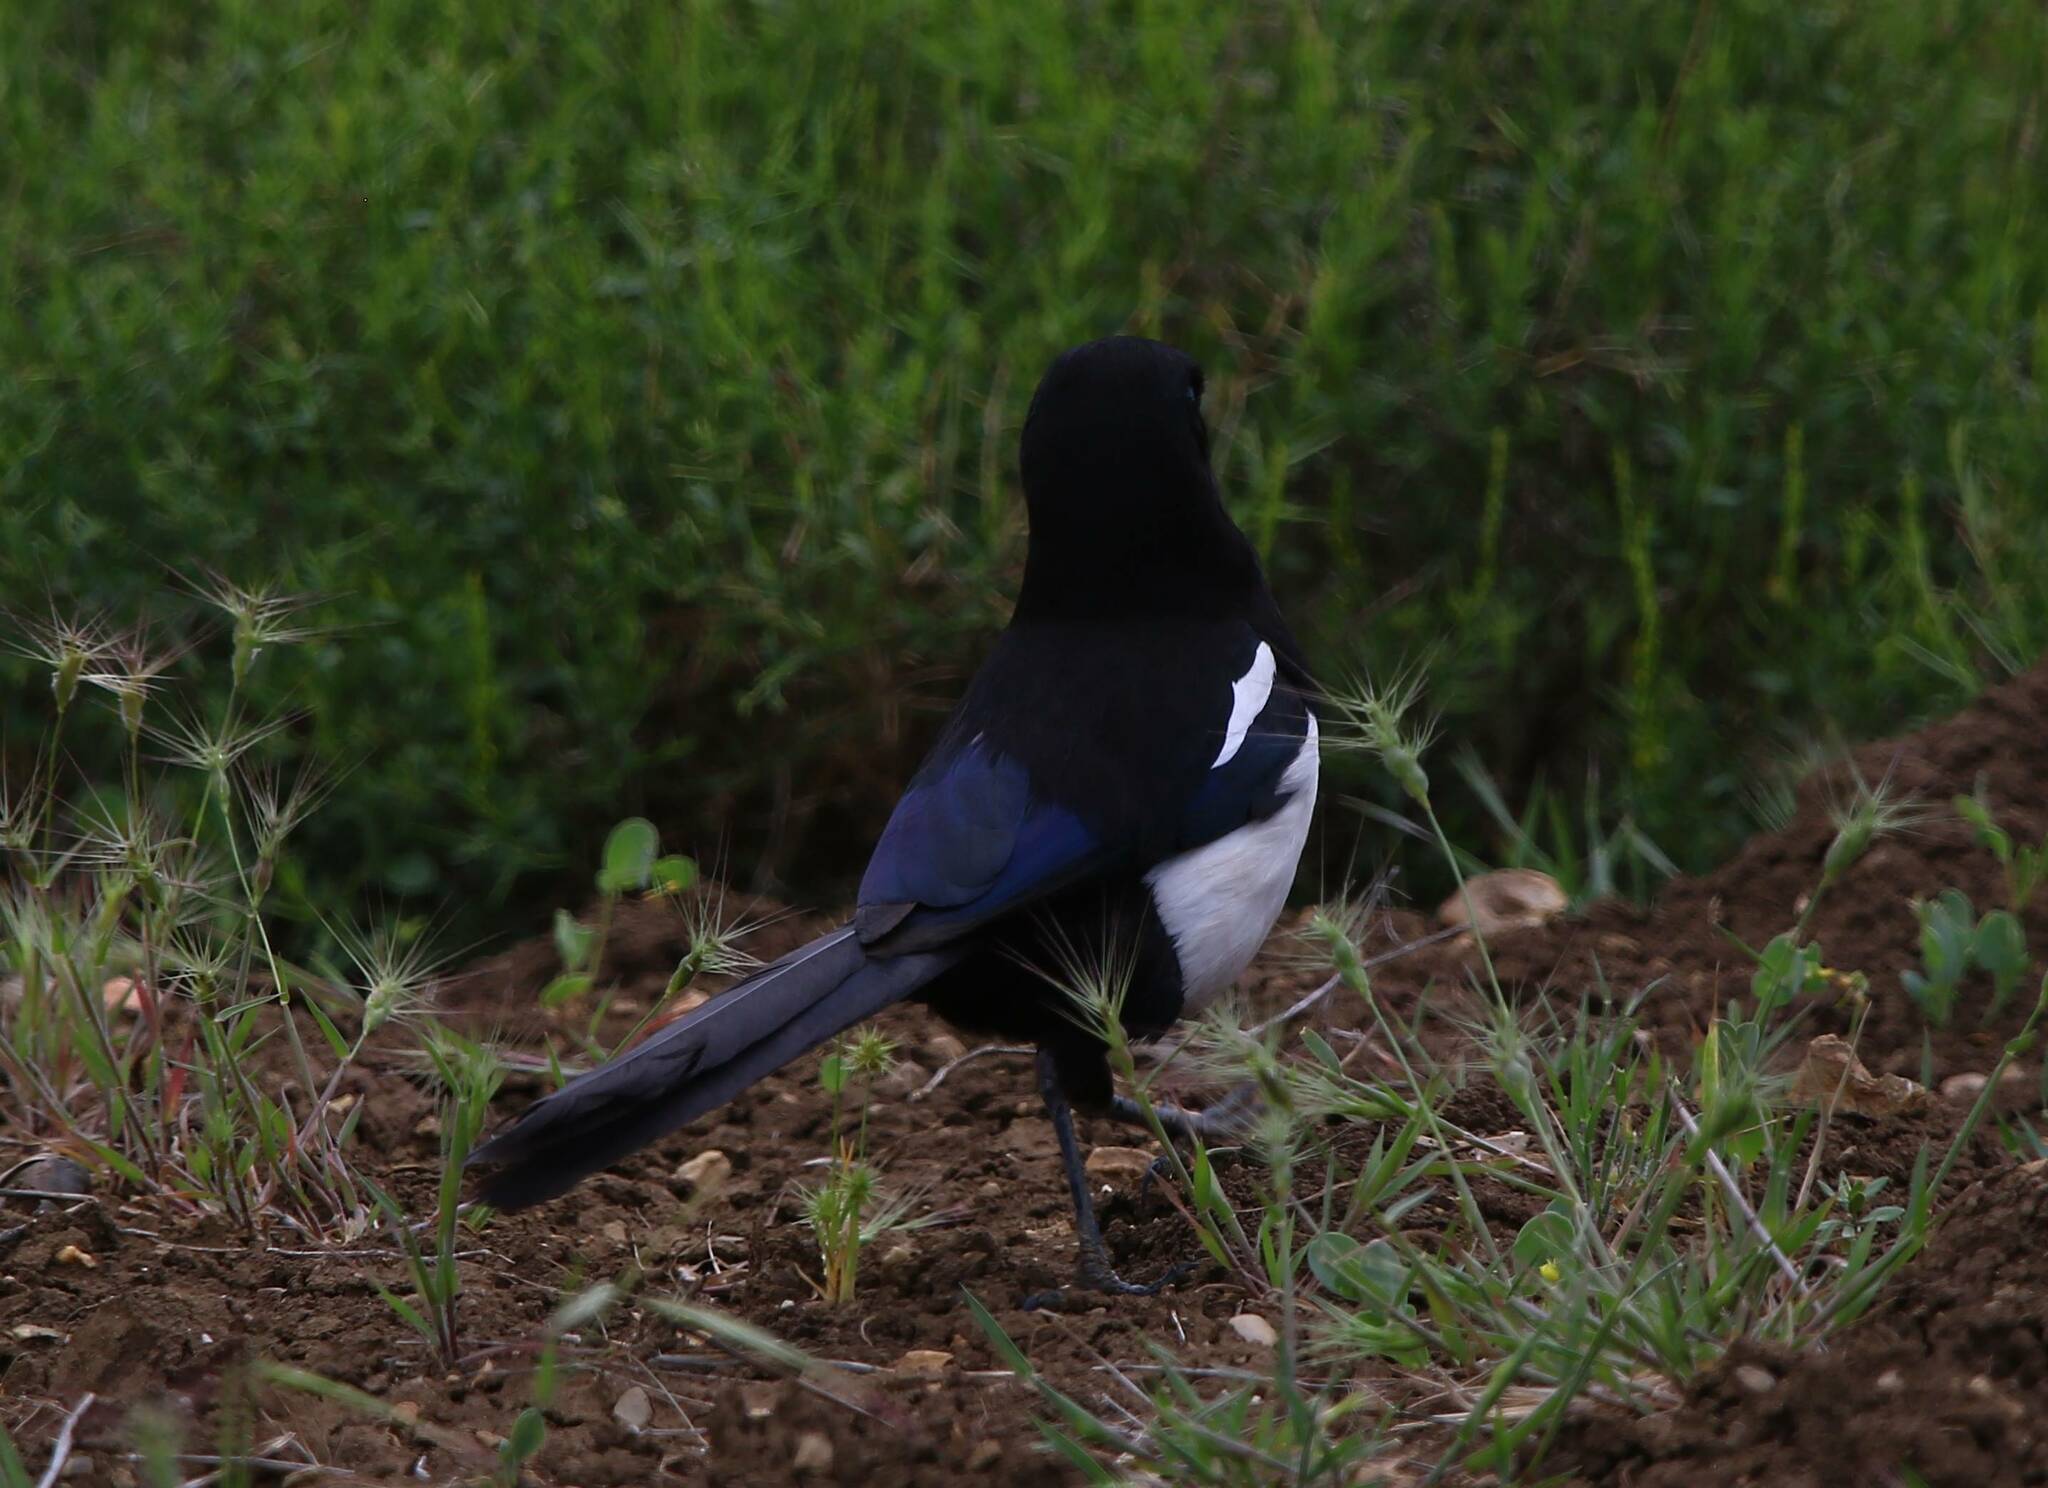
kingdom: Animalia
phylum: Chordata
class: Aves
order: Passeriformes
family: Corvidae
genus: Pica
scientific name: Pica mauritanica
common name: Maghreb magpie
